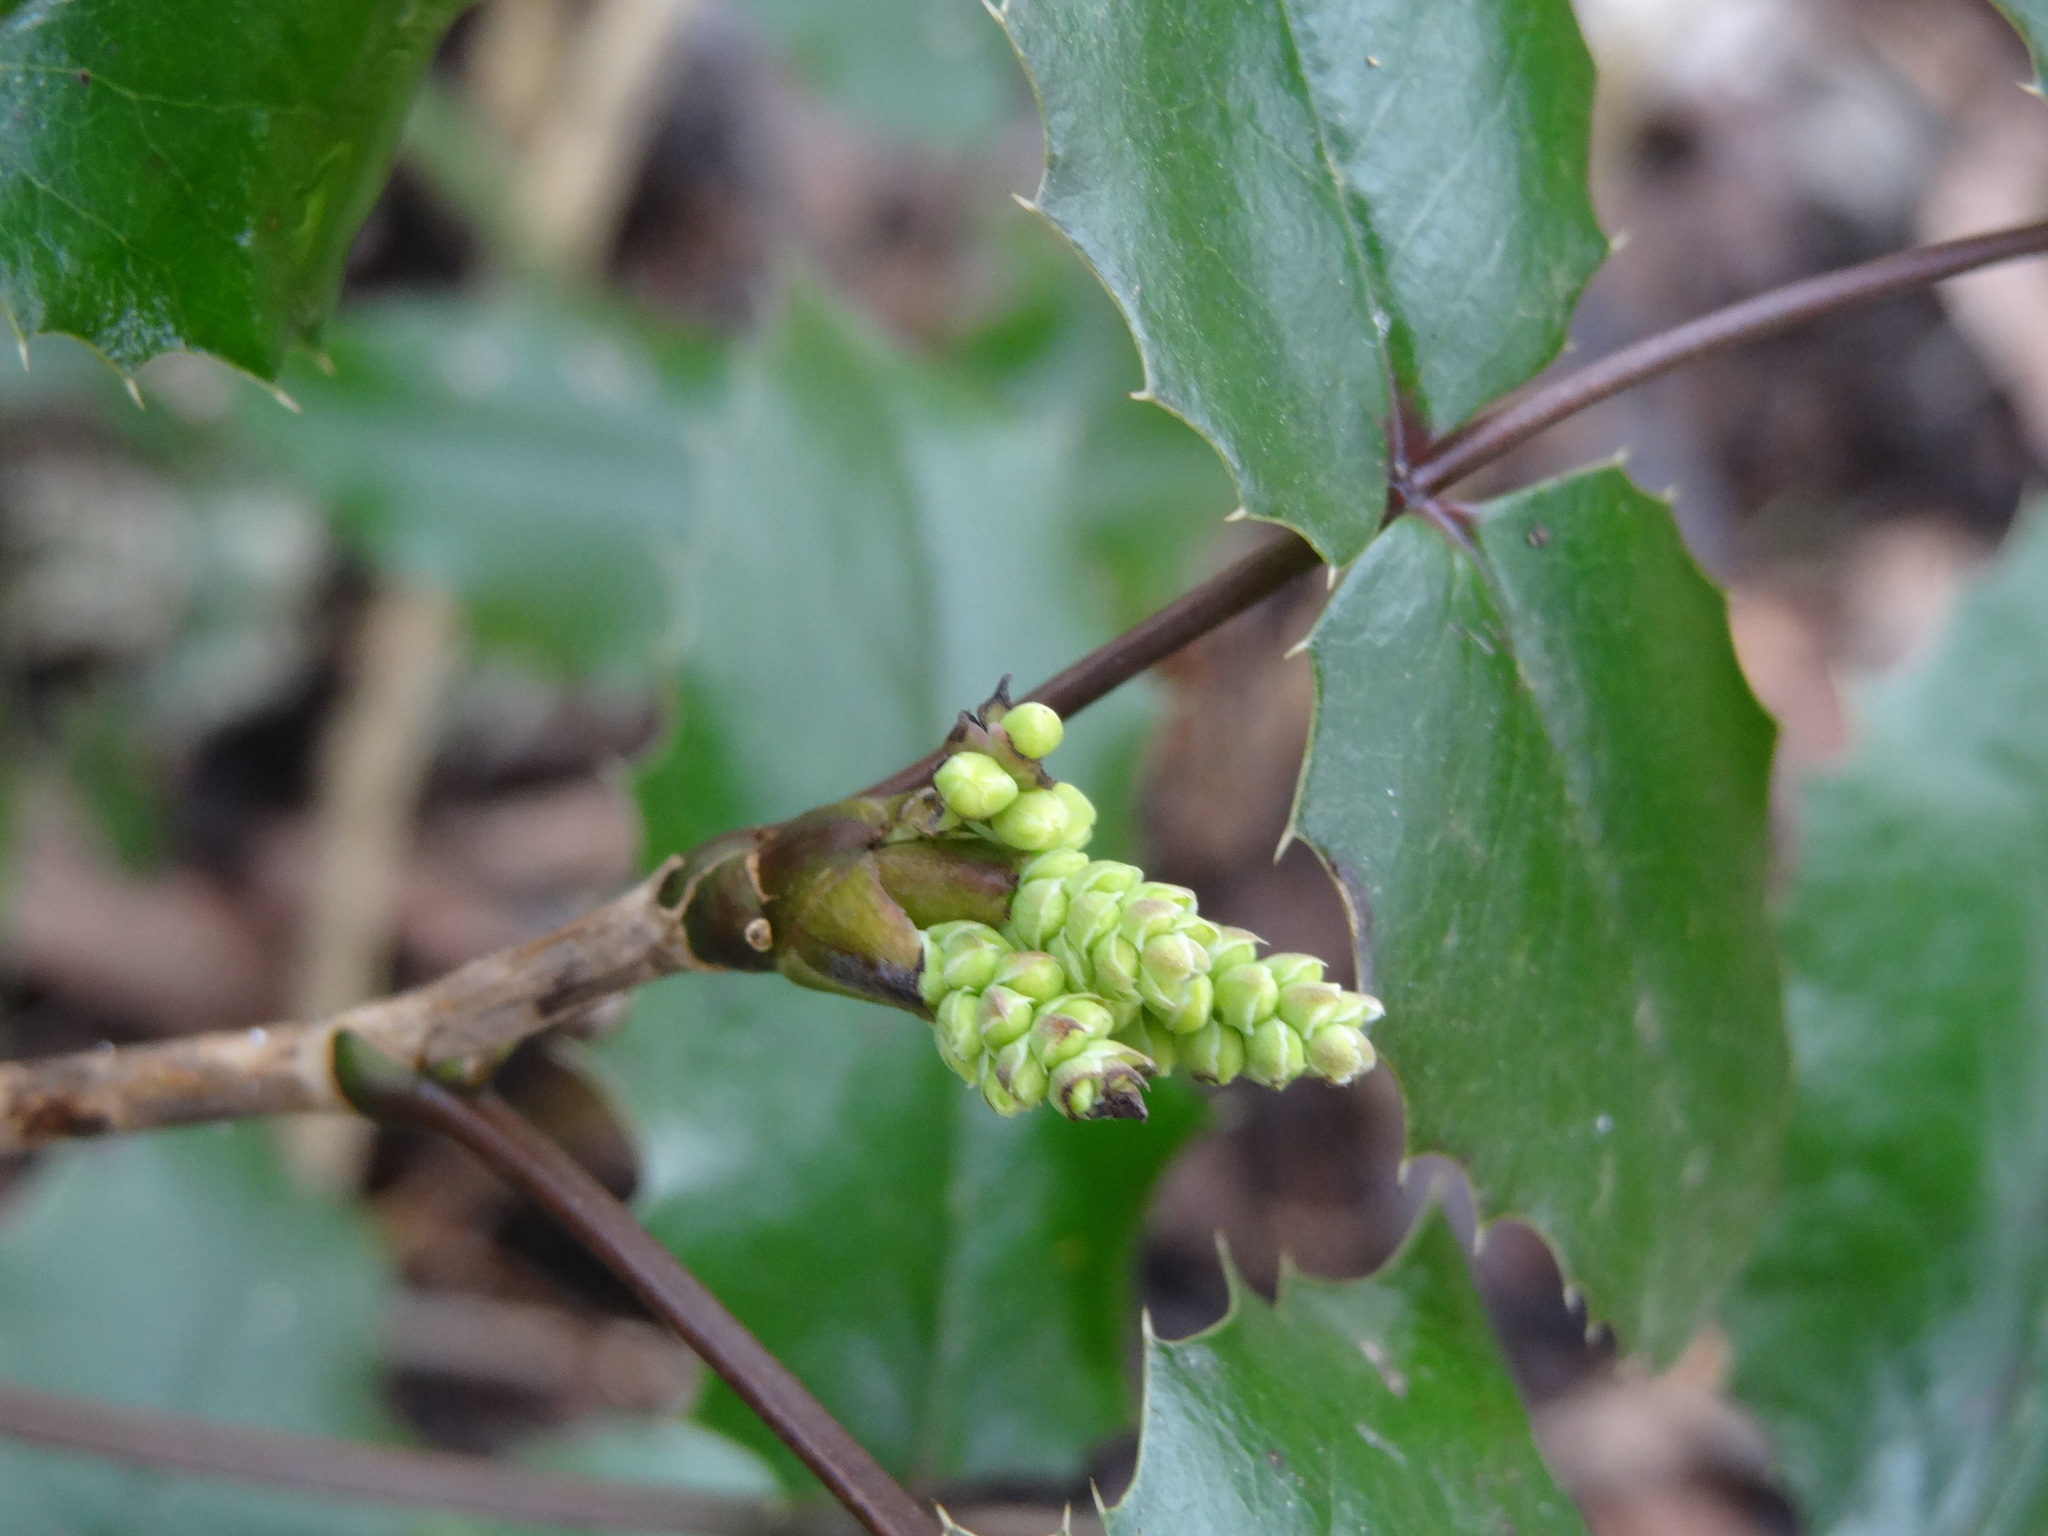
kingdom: Plantae
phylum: Tracheophyta
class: Magnoliopsida
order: Ranunculales
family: Berberidaceae
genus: Mahonia
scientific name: Mahonia aquifolium
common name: Oregon-grape
